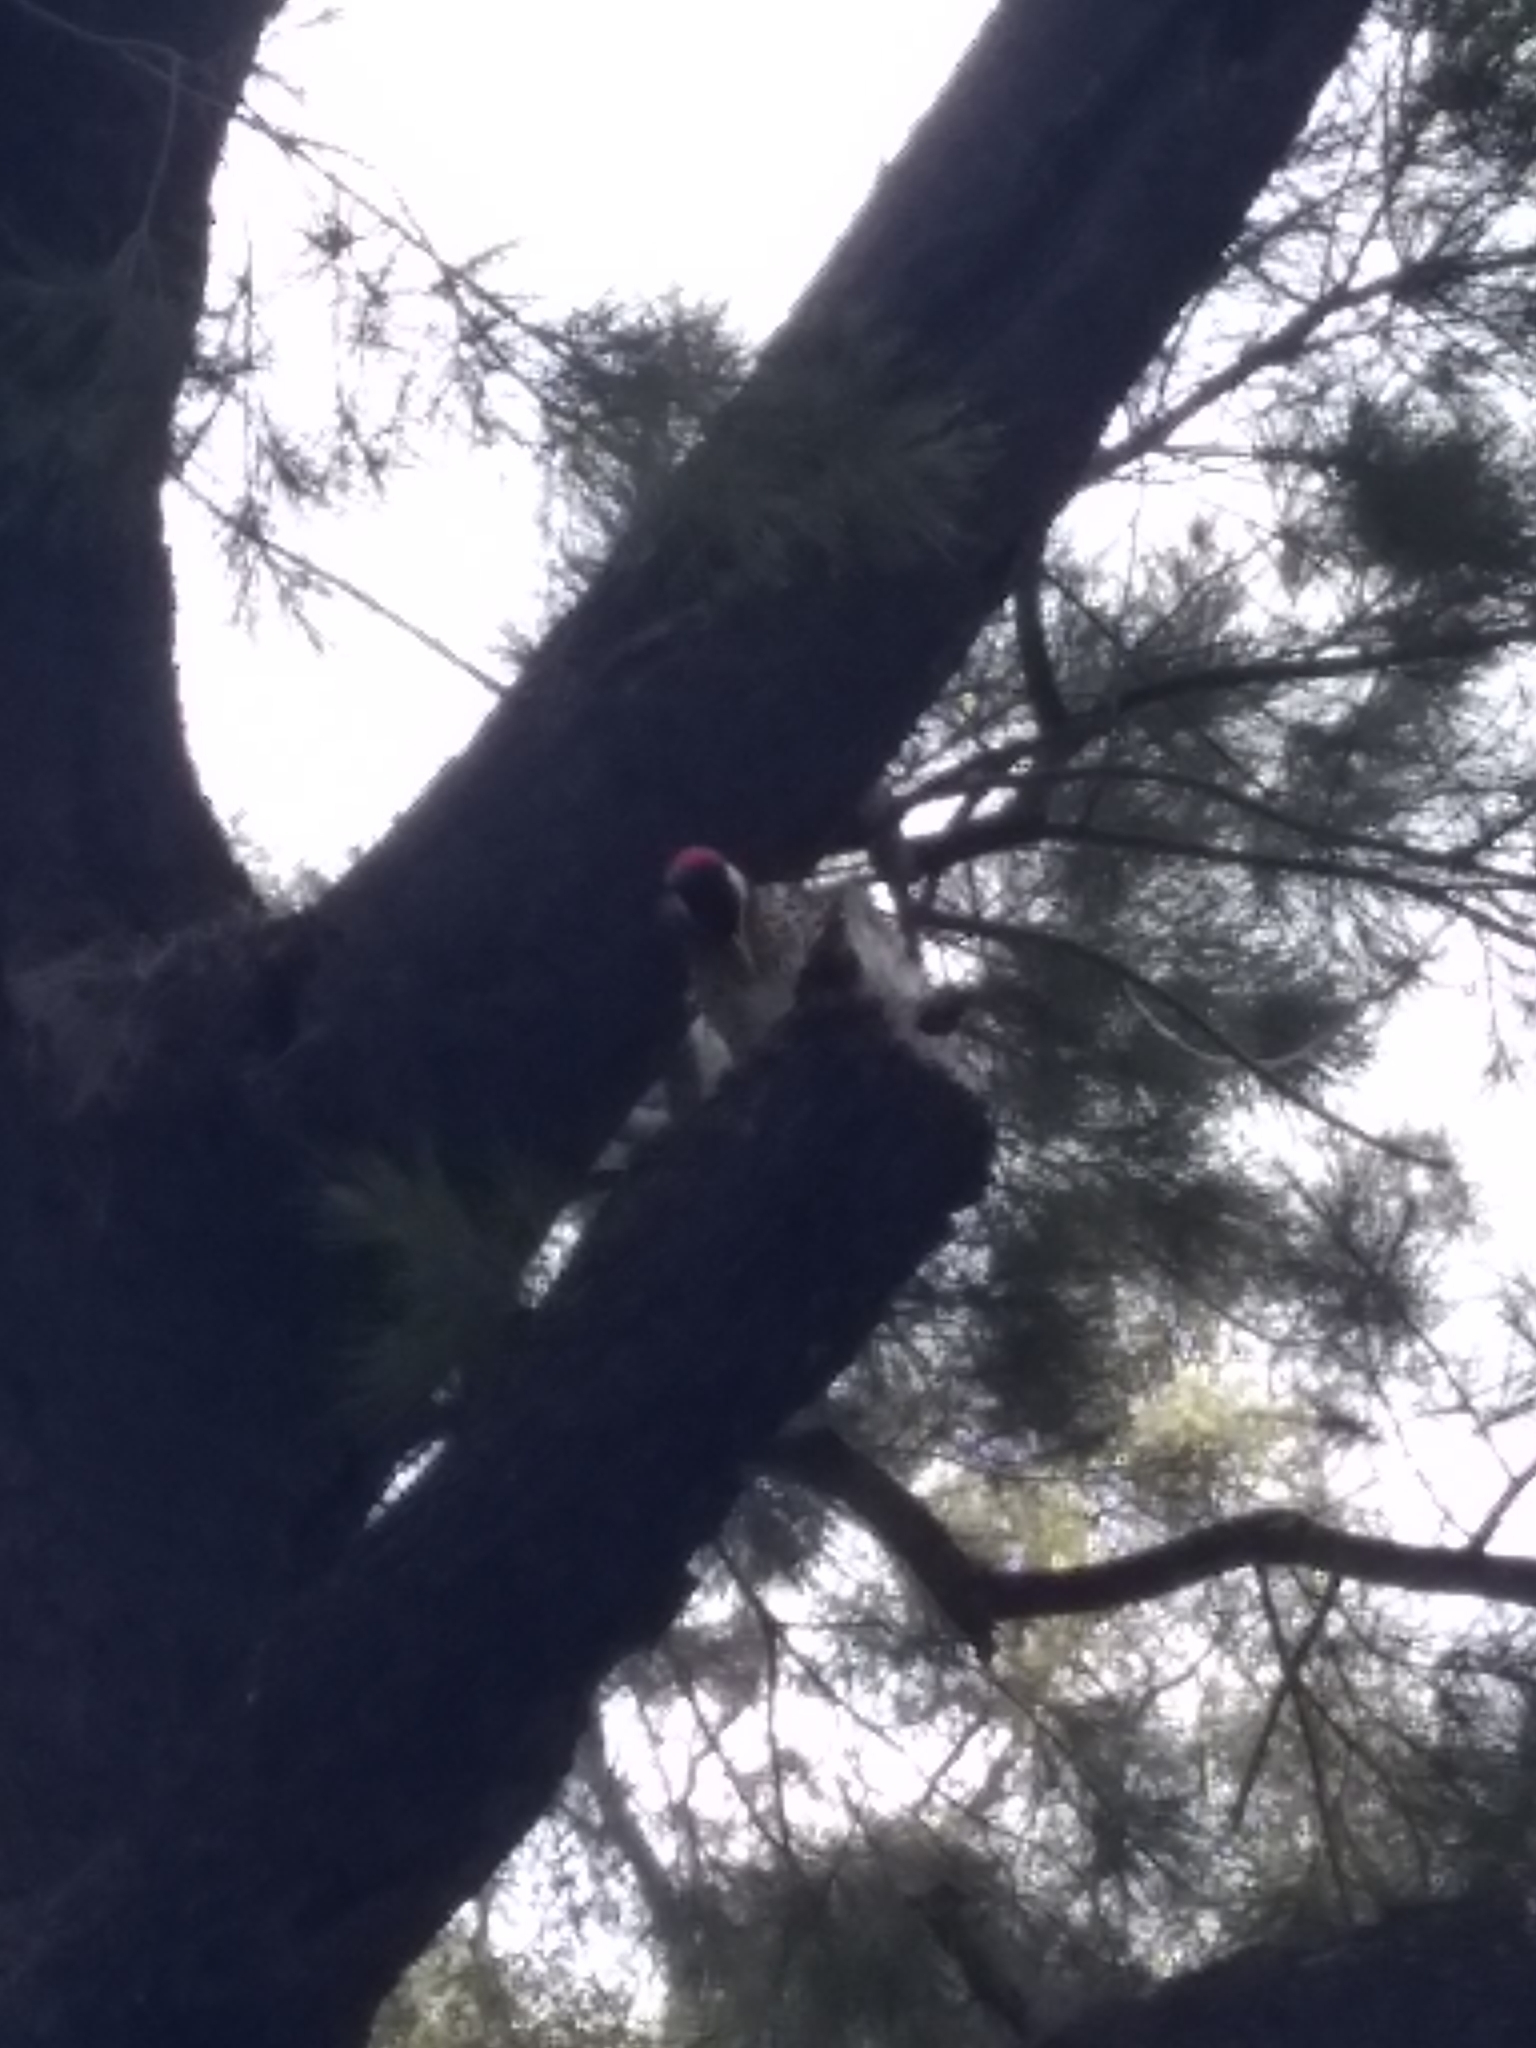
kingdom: Animalia
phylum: Chordata
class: Aves
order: Piciformes
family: Picidae
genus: Colaptes
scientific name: Colaptes melanochloros
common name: Green-barred woodpecker
